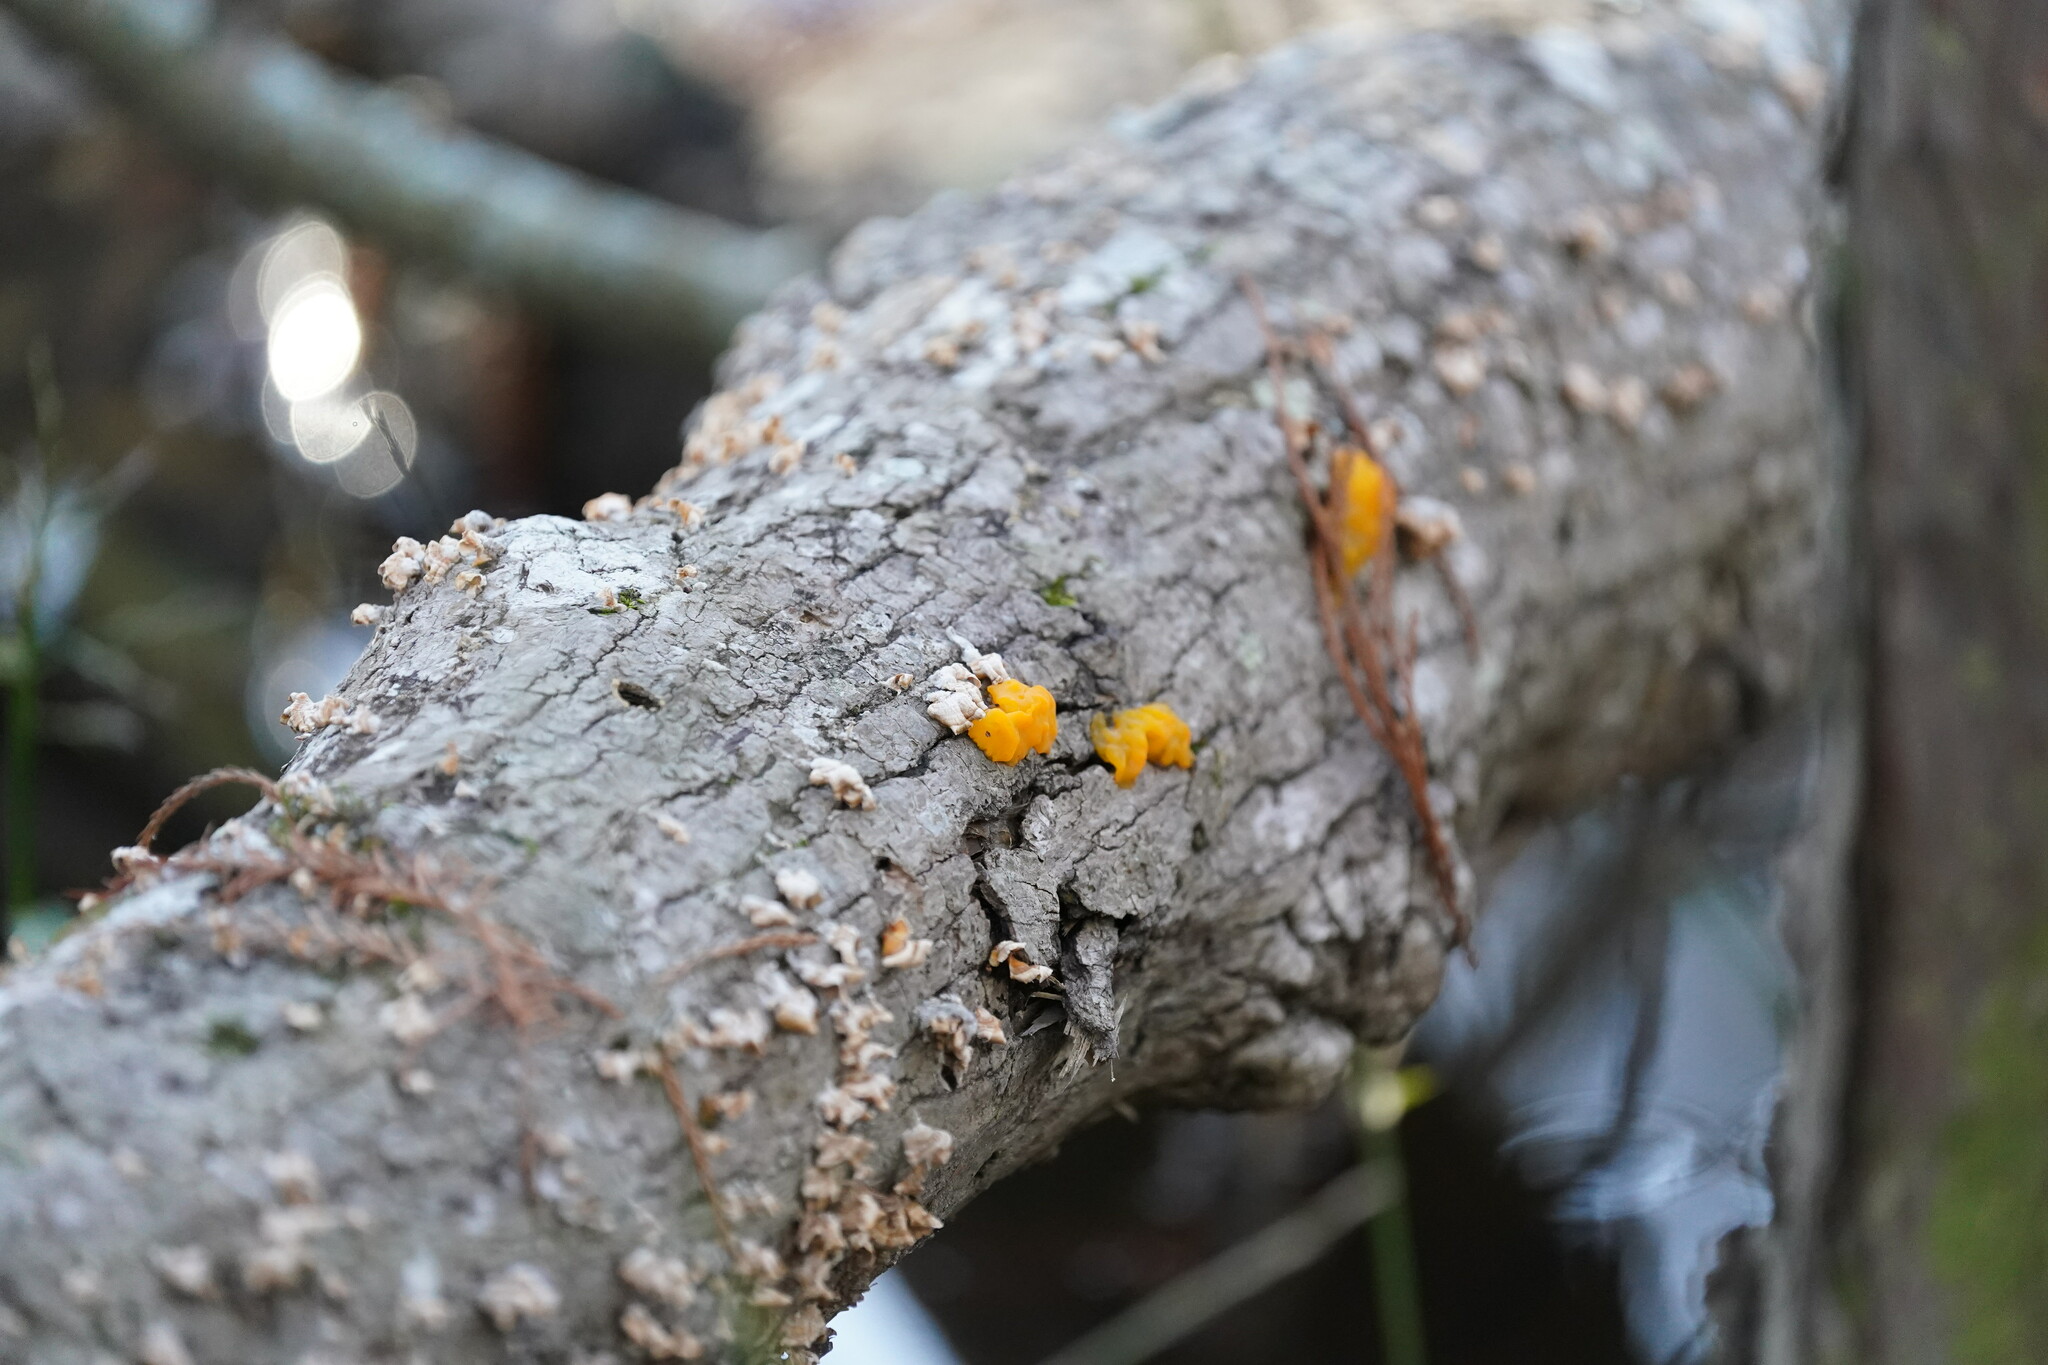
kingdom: Fungi
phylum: Basidiomycota
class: Dacrymycetes
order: Dacrymycetales
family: Dacrymycetaceae
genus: Dacrymyces
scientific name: Dacrymyces chrysospermus
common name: Orange jelly spot
